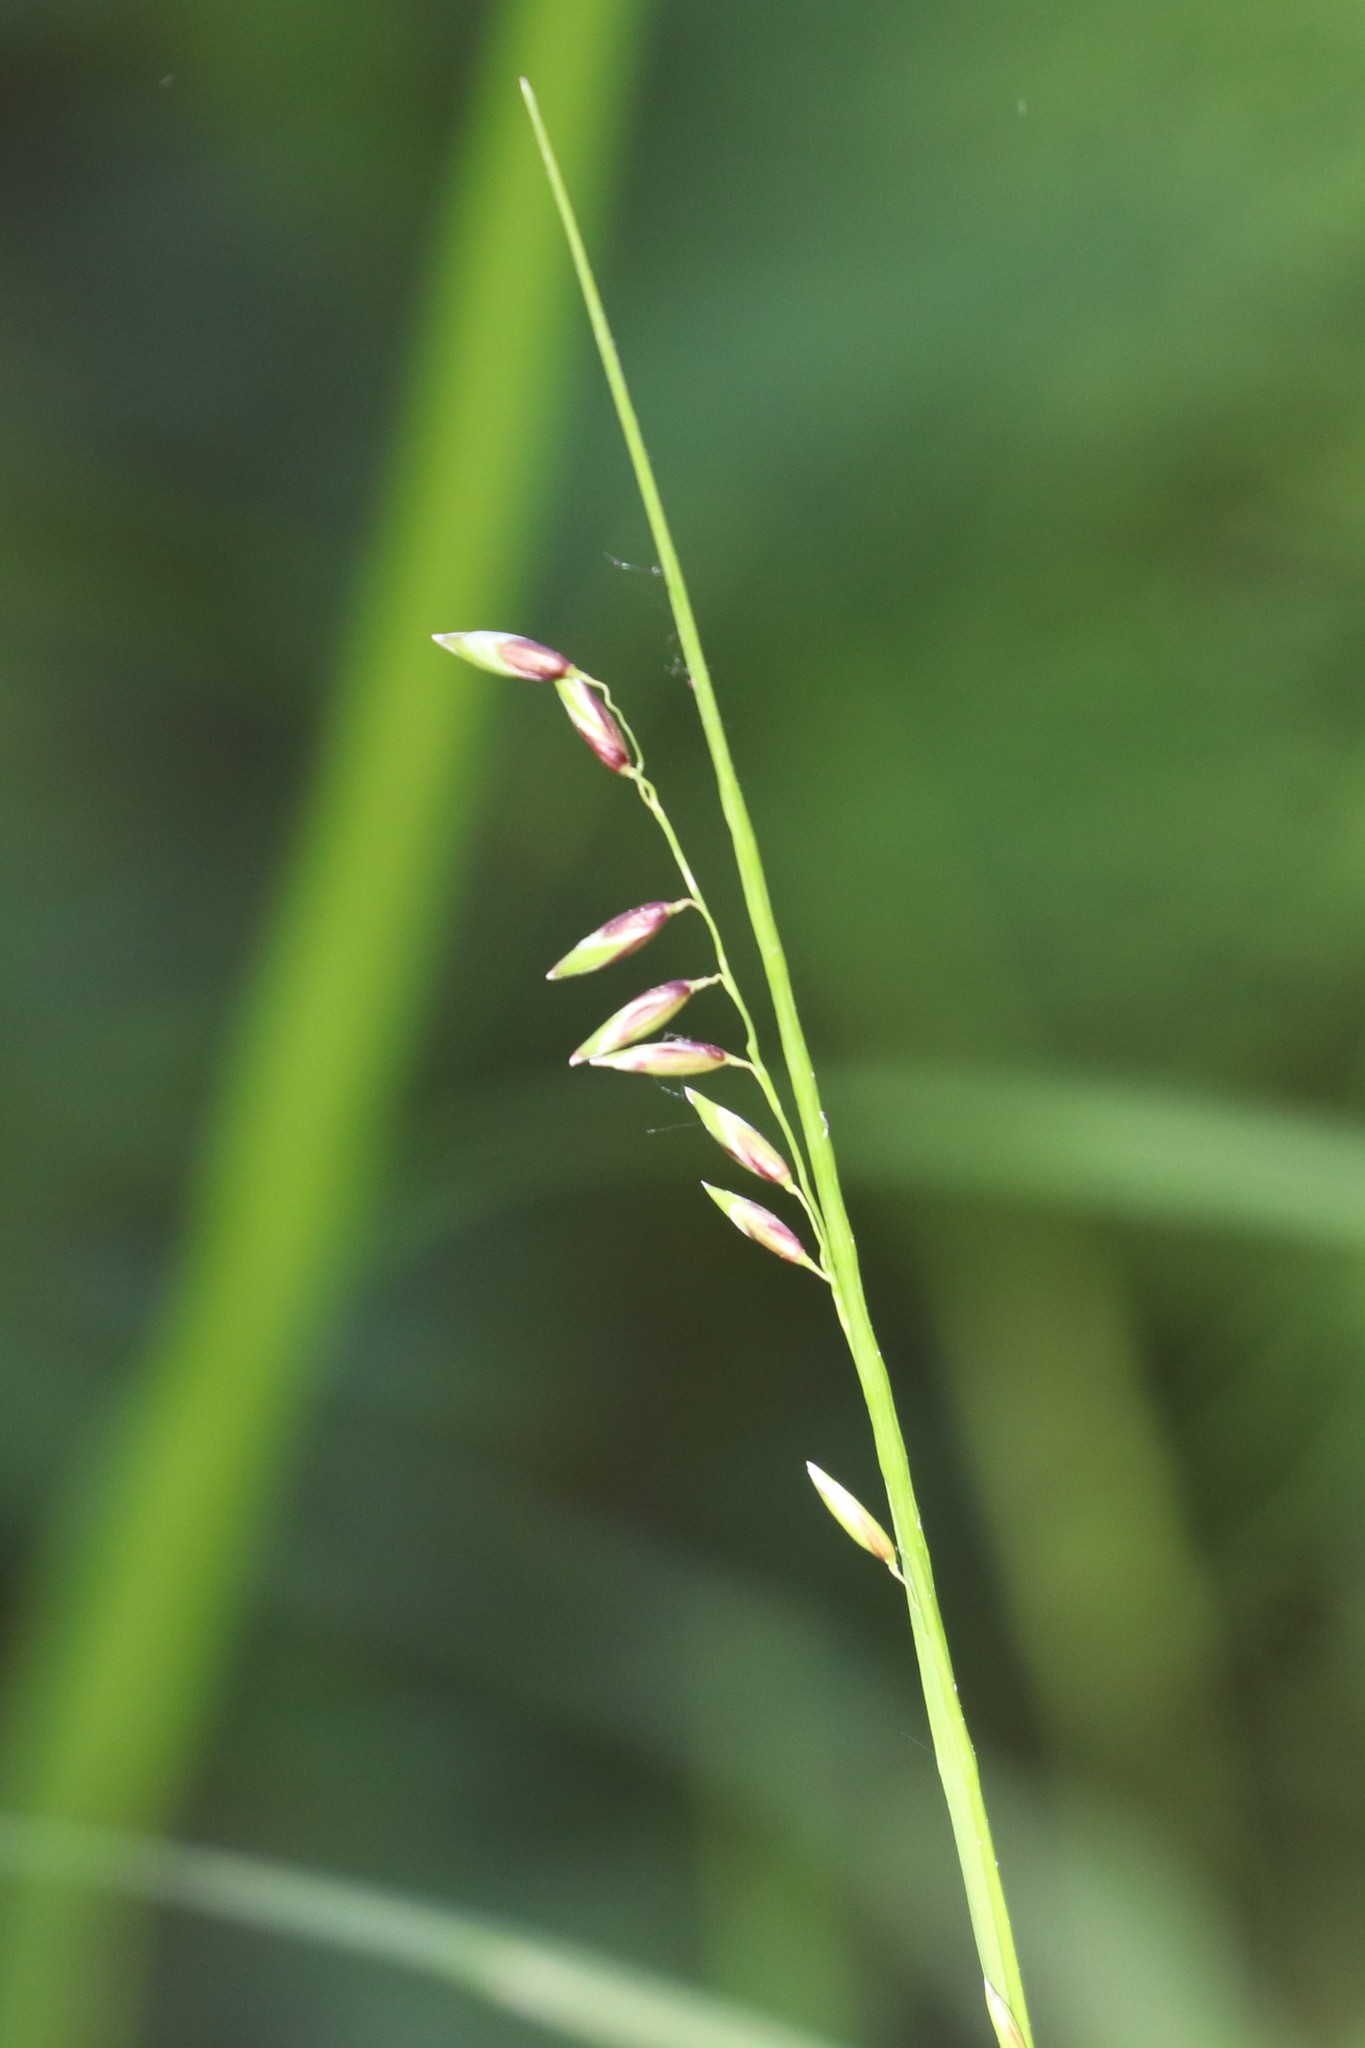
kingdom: Plantae
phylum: Tracheophyta
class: Liliopsida
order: Poales
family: Poaceae
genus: Melica
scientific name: Melica nutans
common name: Mountain melick
